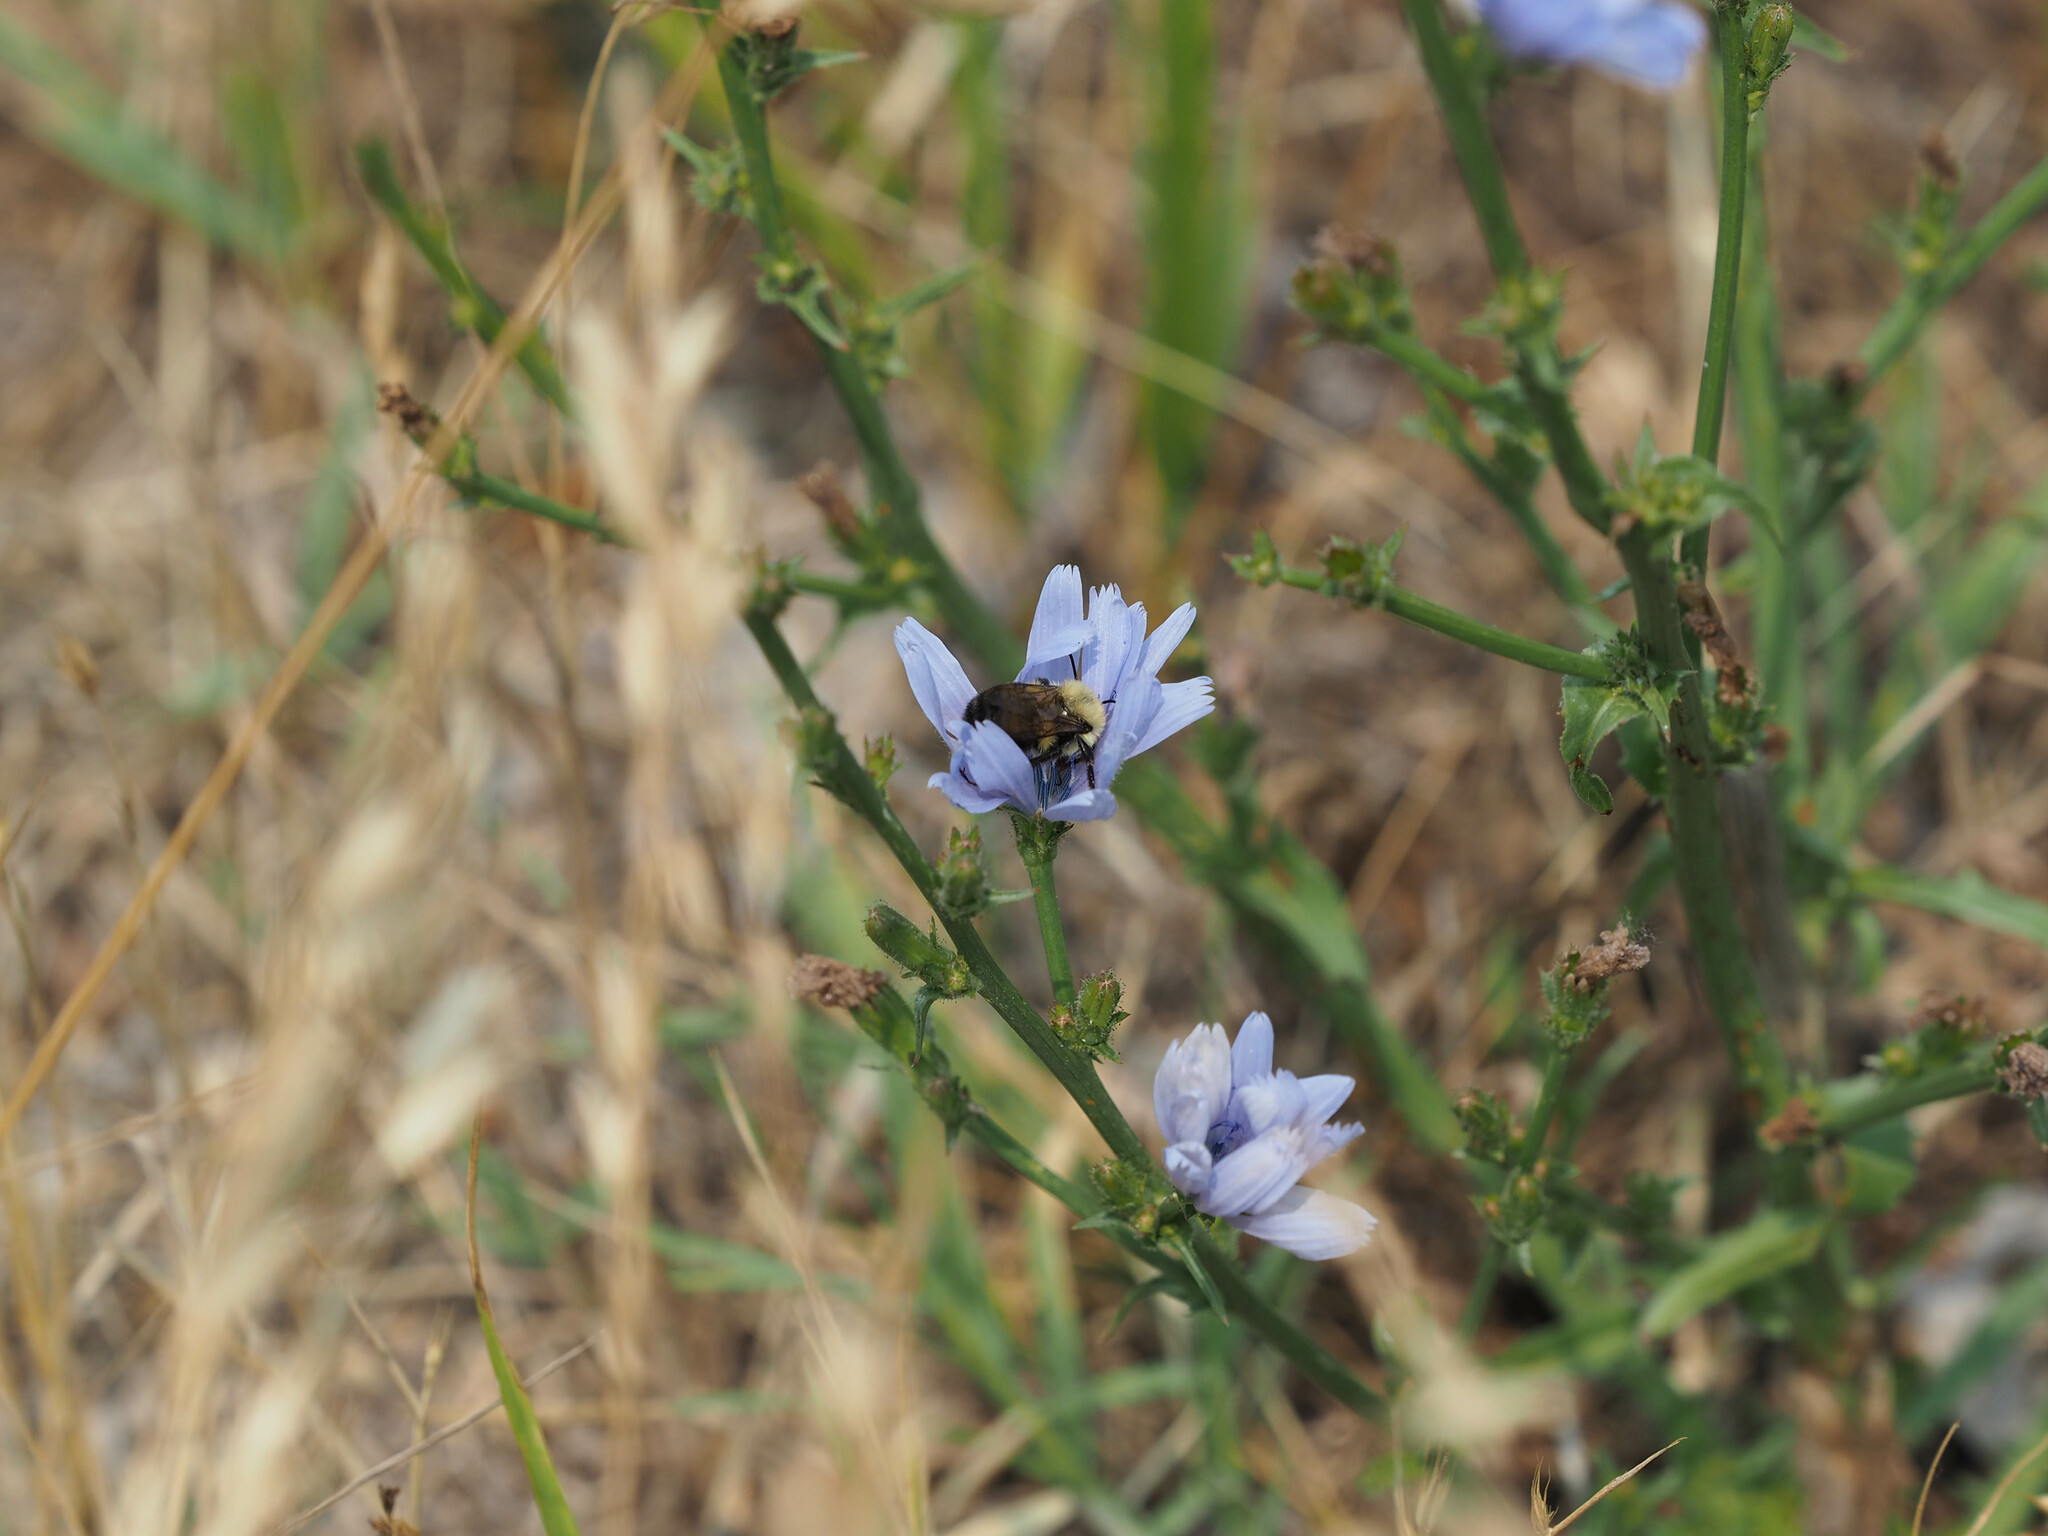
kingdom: Animalia
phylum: Arthropoda
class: Insecta
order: Hymenoptera
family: Apidae
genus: Bombus
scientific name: Bombus bimaculatus
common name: Two-spotted bumble bee
